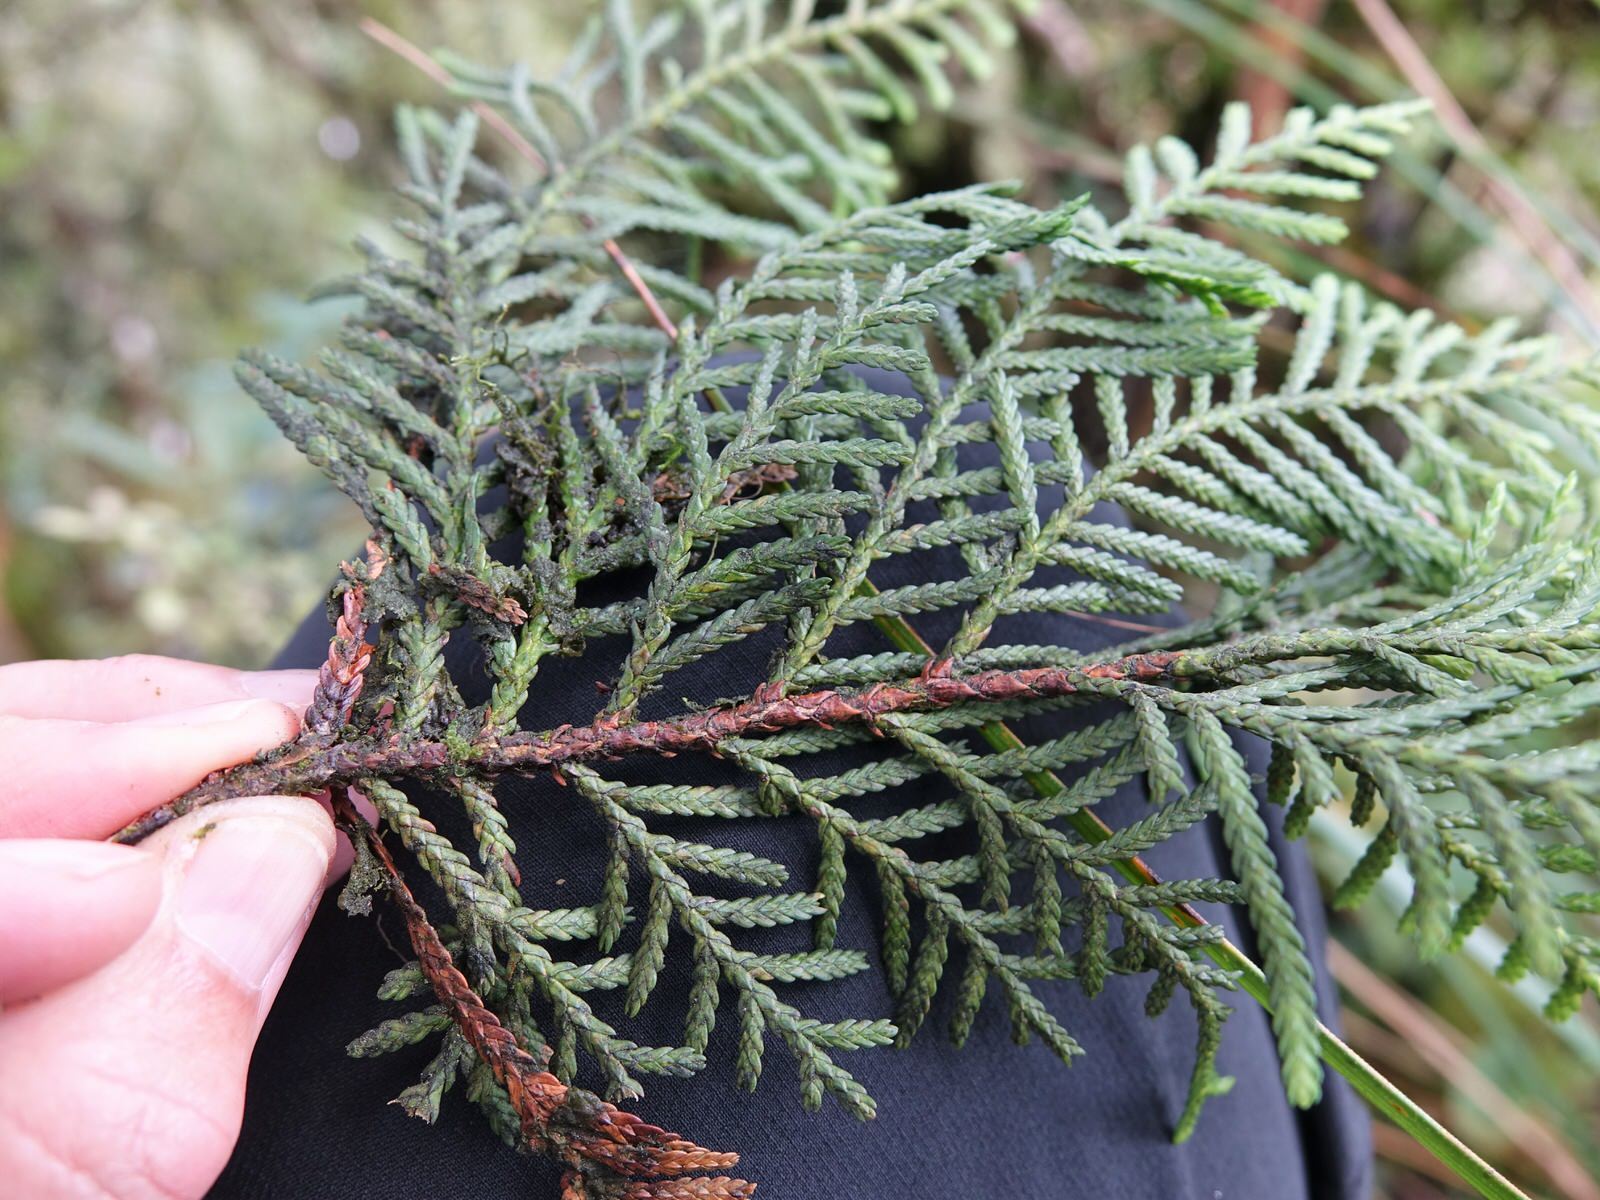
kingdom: Plantae
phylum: Tracheophyta
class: Pinopsida
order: Pinales
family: Cupressaceae
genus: Libocedrus
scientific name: Libocedrus bidwillii
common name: Cedar
